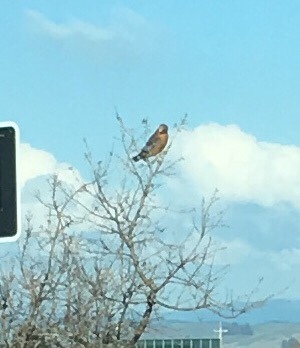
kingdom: Animalia
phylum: Chordata
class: Aves
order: Accipitriformes
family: Accipitridae
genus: Buteo
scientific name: Buteo lineatus
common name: Red-shouldered hawk
